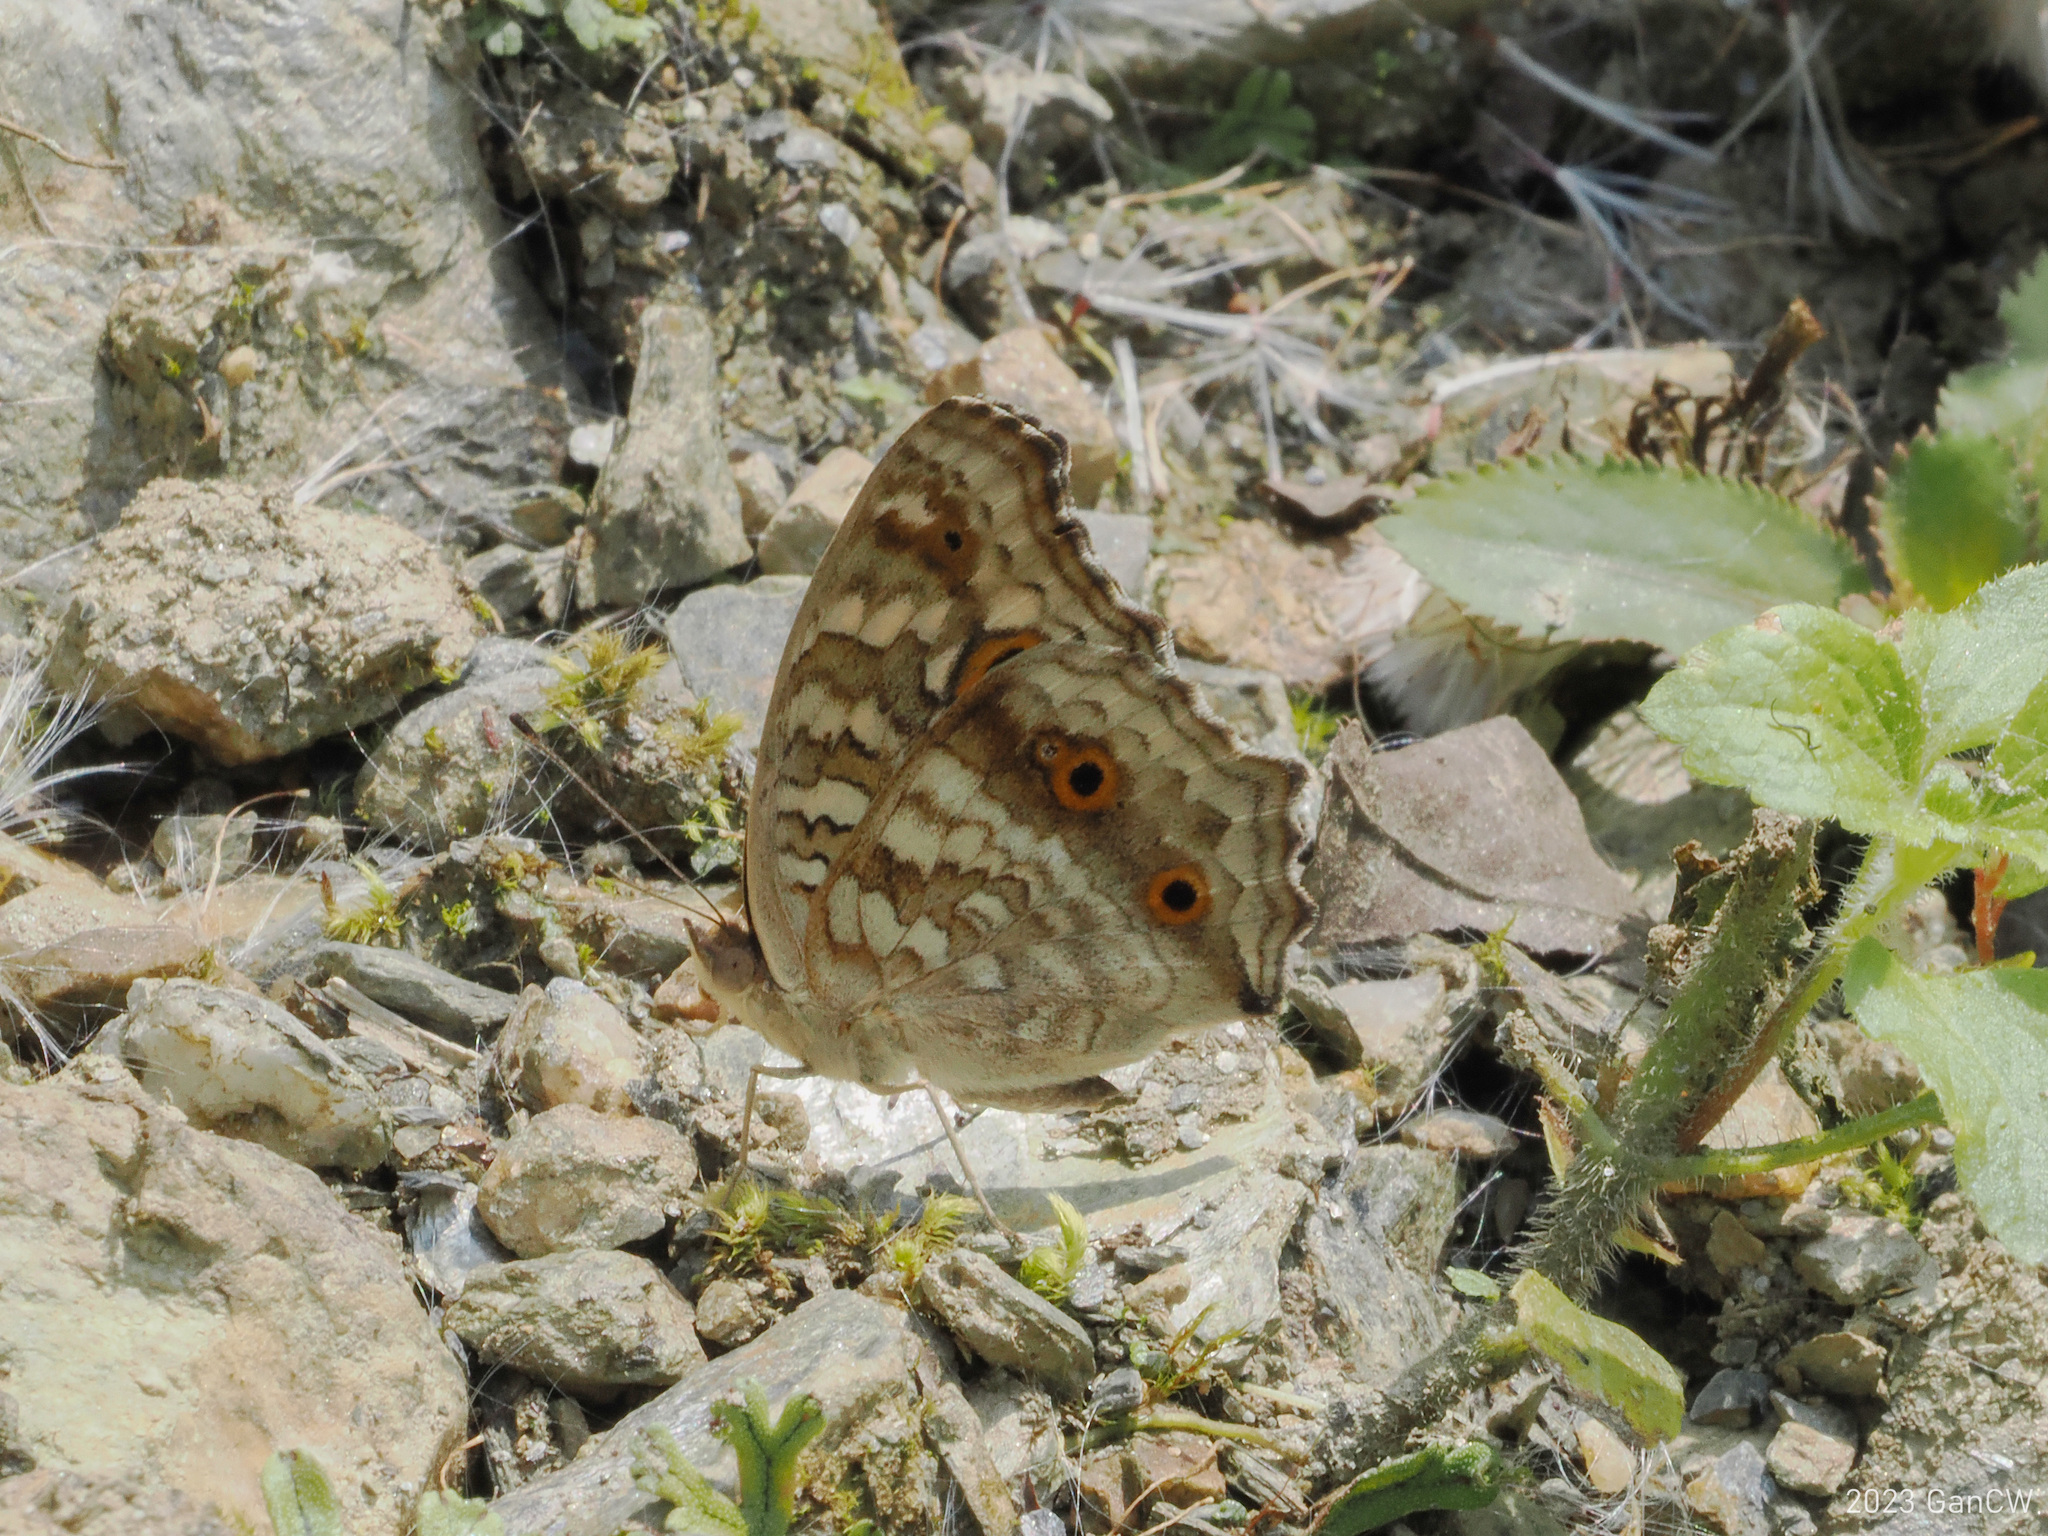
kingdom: Animalia
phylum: Arthropoda
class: Insecta
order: Lepidoptera
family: Nymphalidae
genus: Junonia
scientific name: Junonia lemonias
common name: Lemon pansy
